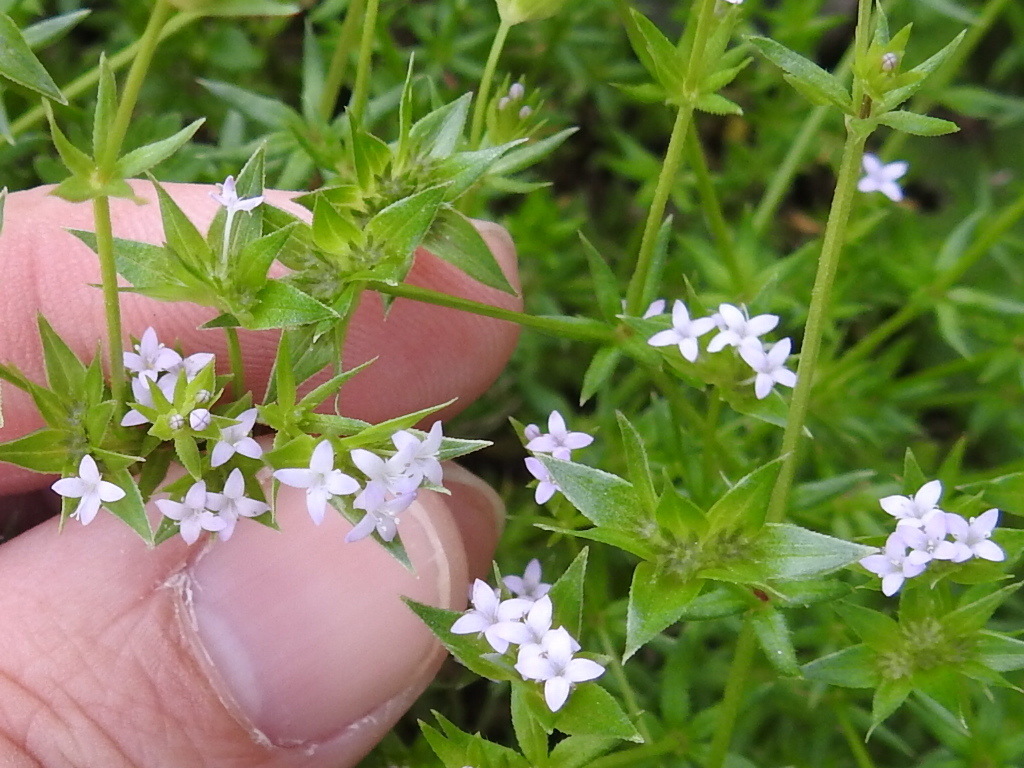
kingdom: Plantae
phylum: Tracheophyta
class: Magnoliopsida
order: Gentianales
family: Rubiaceae
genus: Sherardia
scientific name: Sherardia arvensis
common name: Field madder
